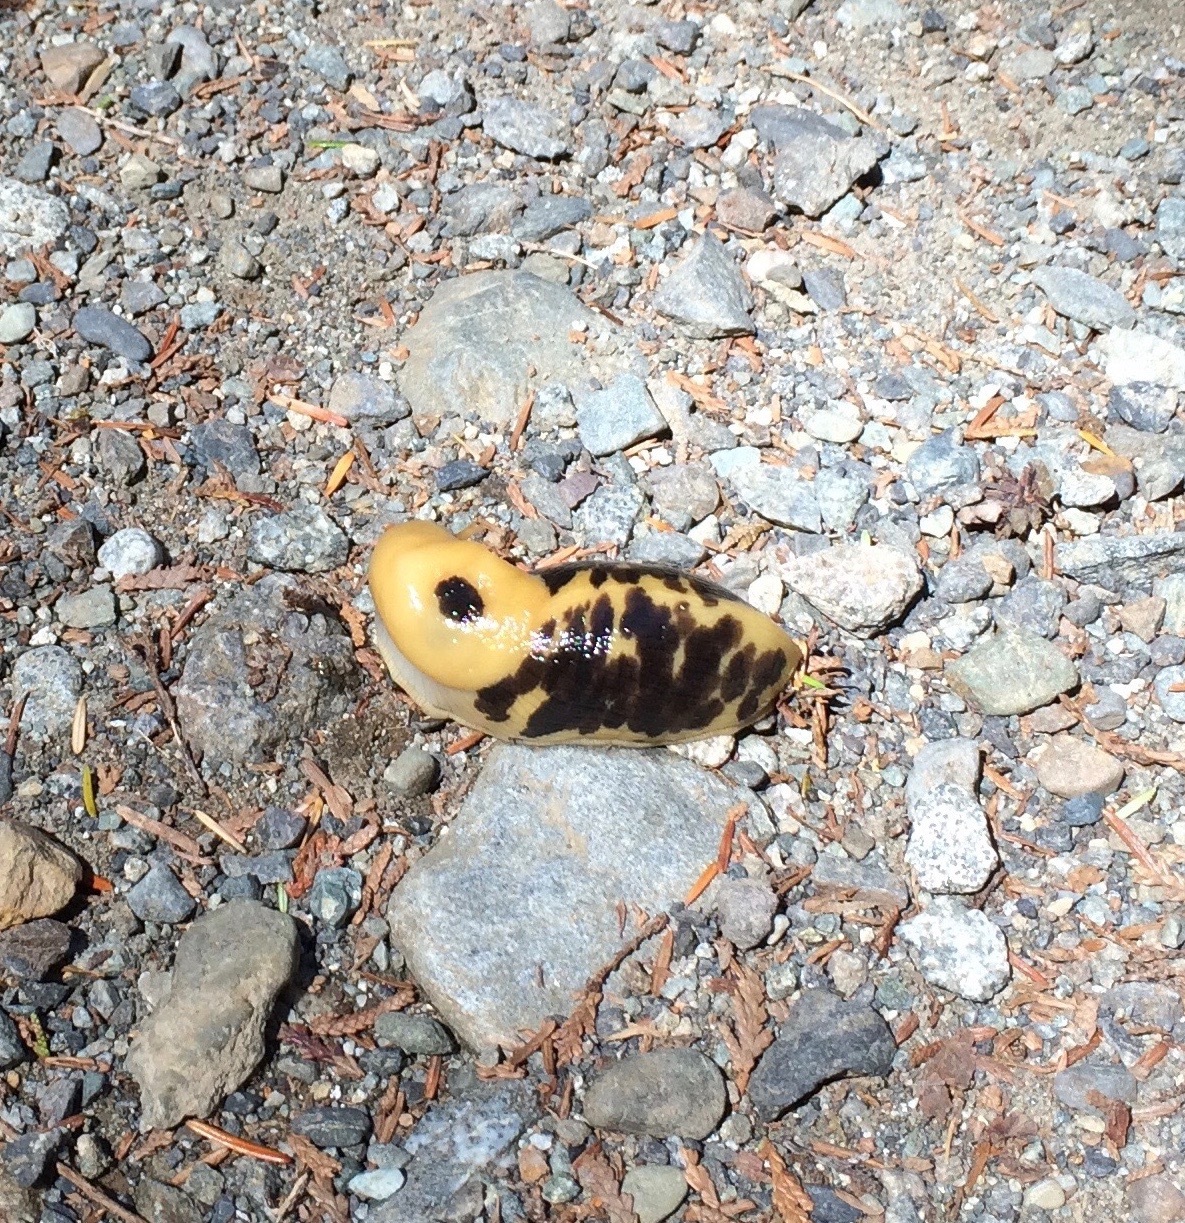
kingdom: Animalia
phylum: Mollusca
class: Gastropoda
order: Stylommatophora
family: Ariolimacidae
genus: Ariolimax
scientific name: Ariolimax columbianus
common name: Pacific banana slug
